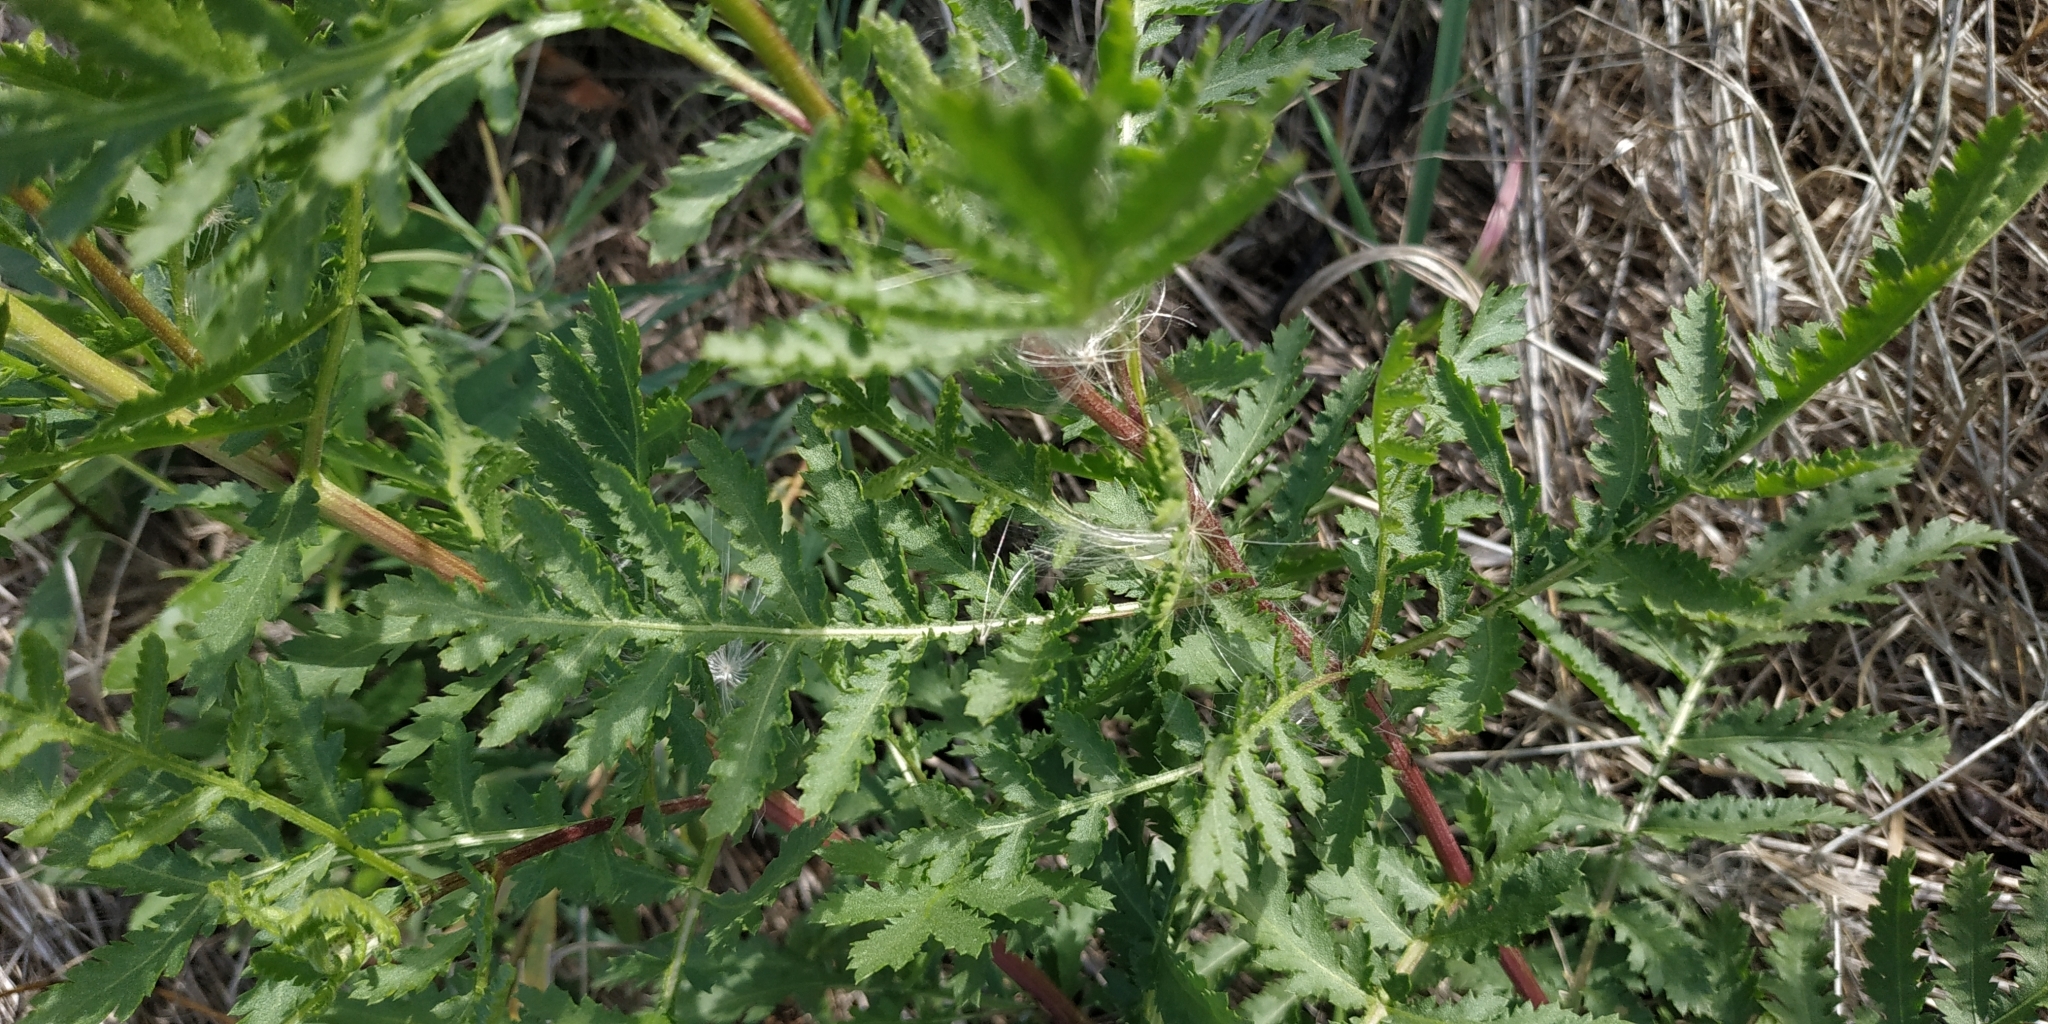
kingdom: Plantae
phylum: Tracheophyta
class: Magnoliopsida
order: Asterales
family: Asteraceae
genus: Tanacetum
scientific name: Tanacetum vulgare
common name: Common tansy
